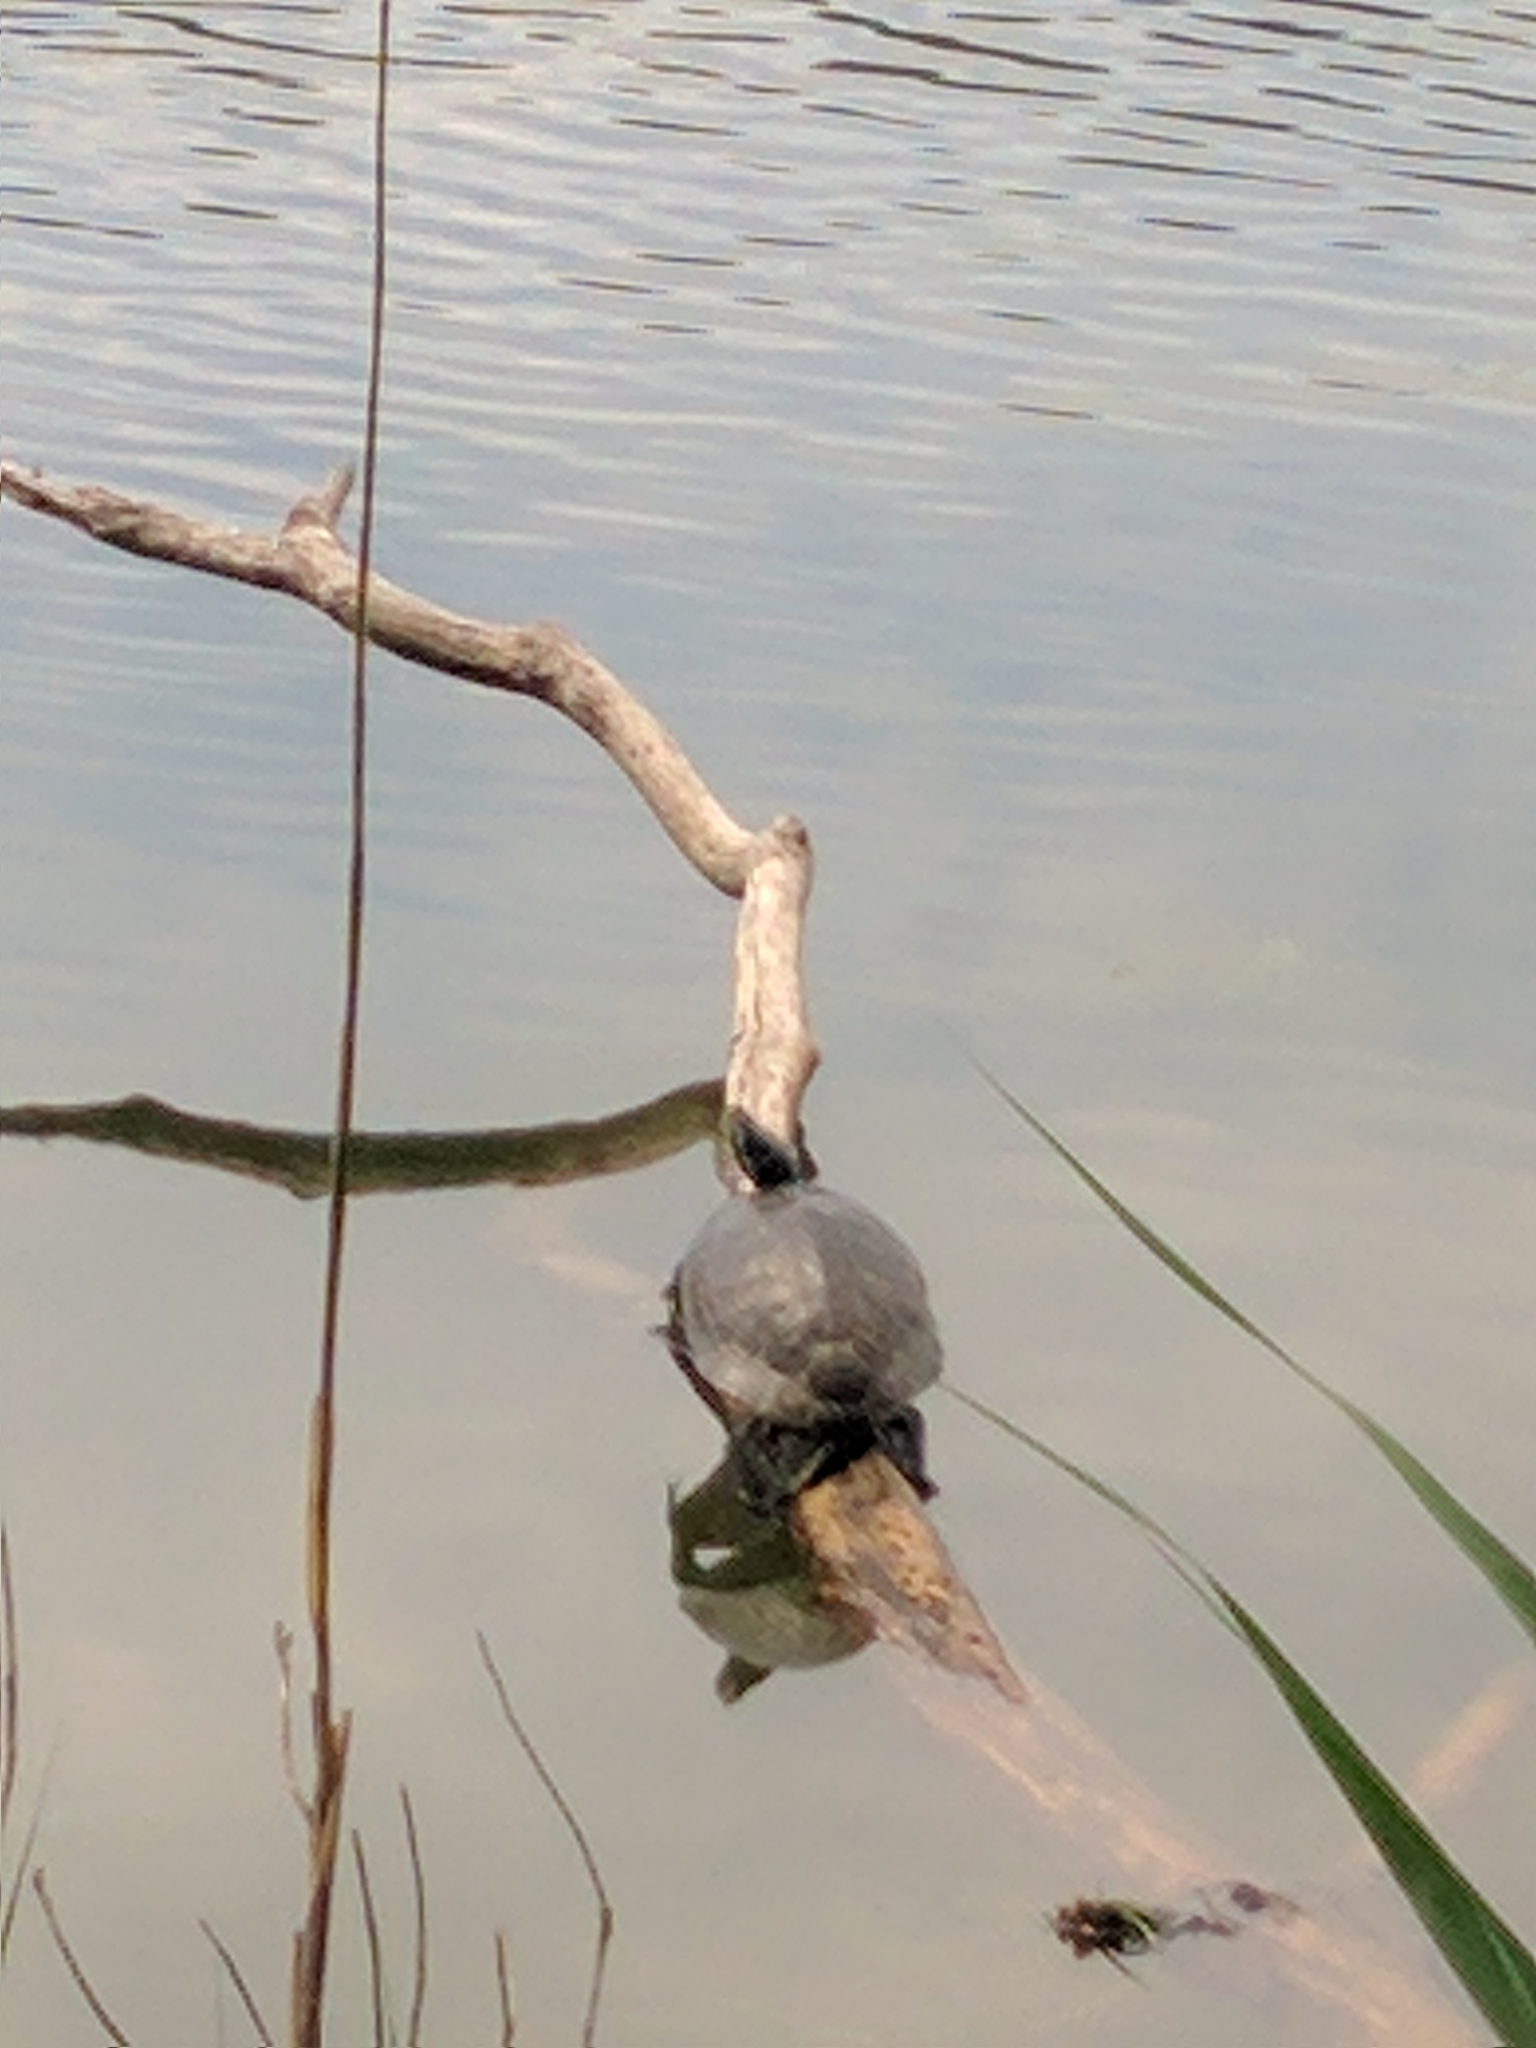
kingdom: Animalia
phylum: Chordata
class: Testudines
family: Emydidae
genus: Trachemys
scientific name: Trachemys scripta
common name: Slider
